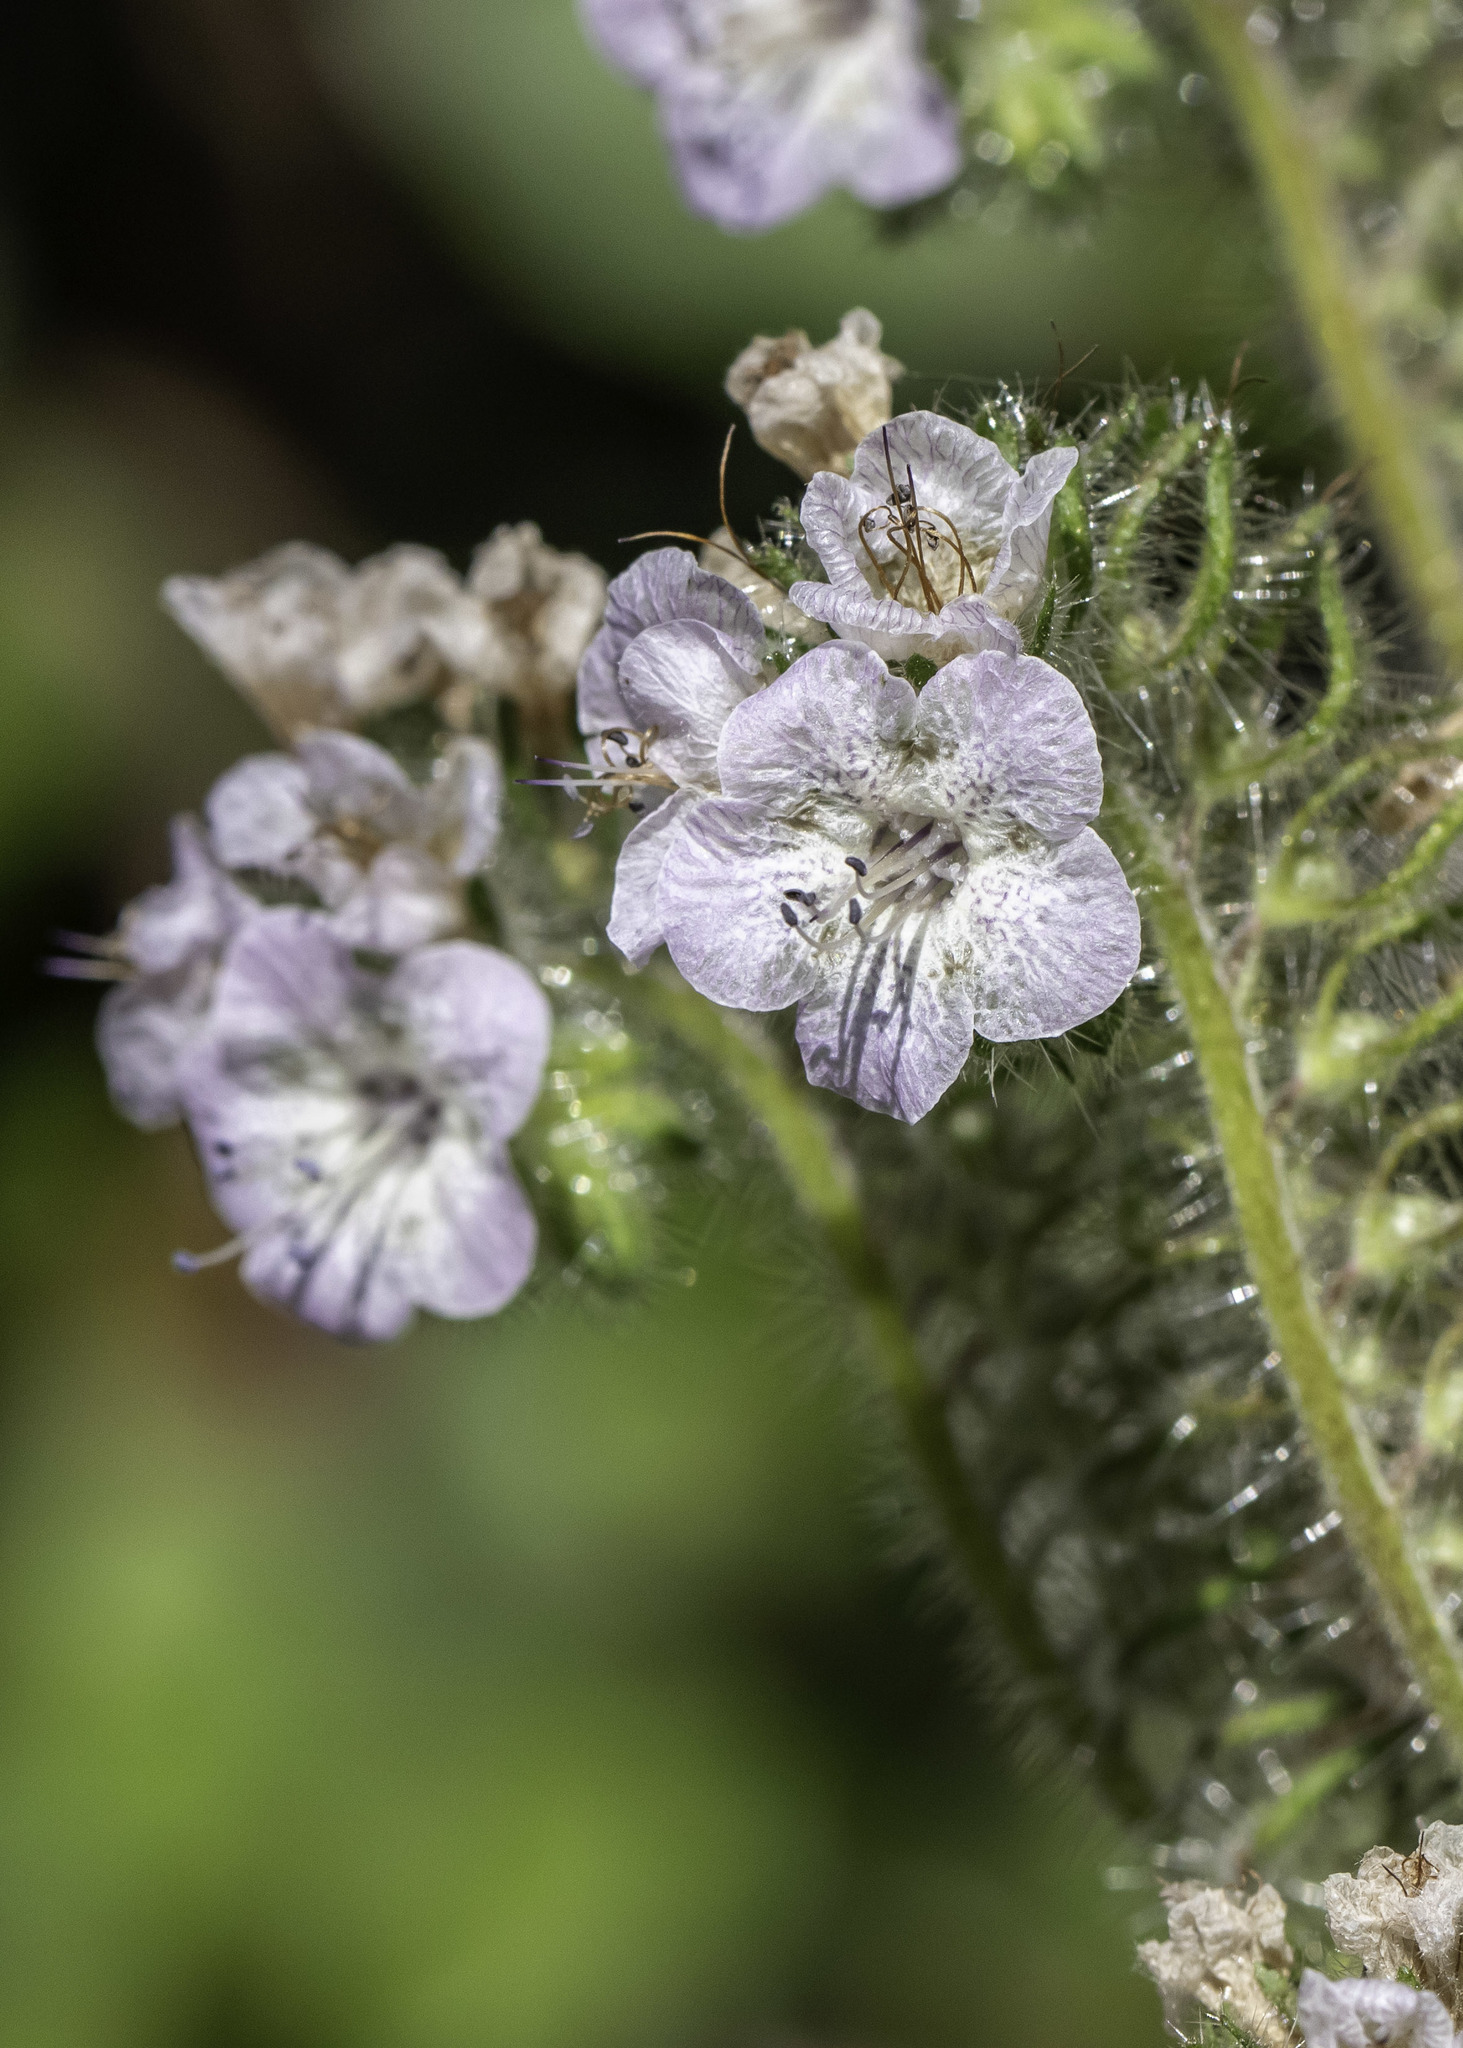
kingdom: Plantae
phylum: Tracheophyta
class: Magnoliopsida
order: Boraginales
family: Hydrophyllaceae
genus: Phacelia
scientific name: Phacelia cicutaria
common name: Caterpillar phacelia
